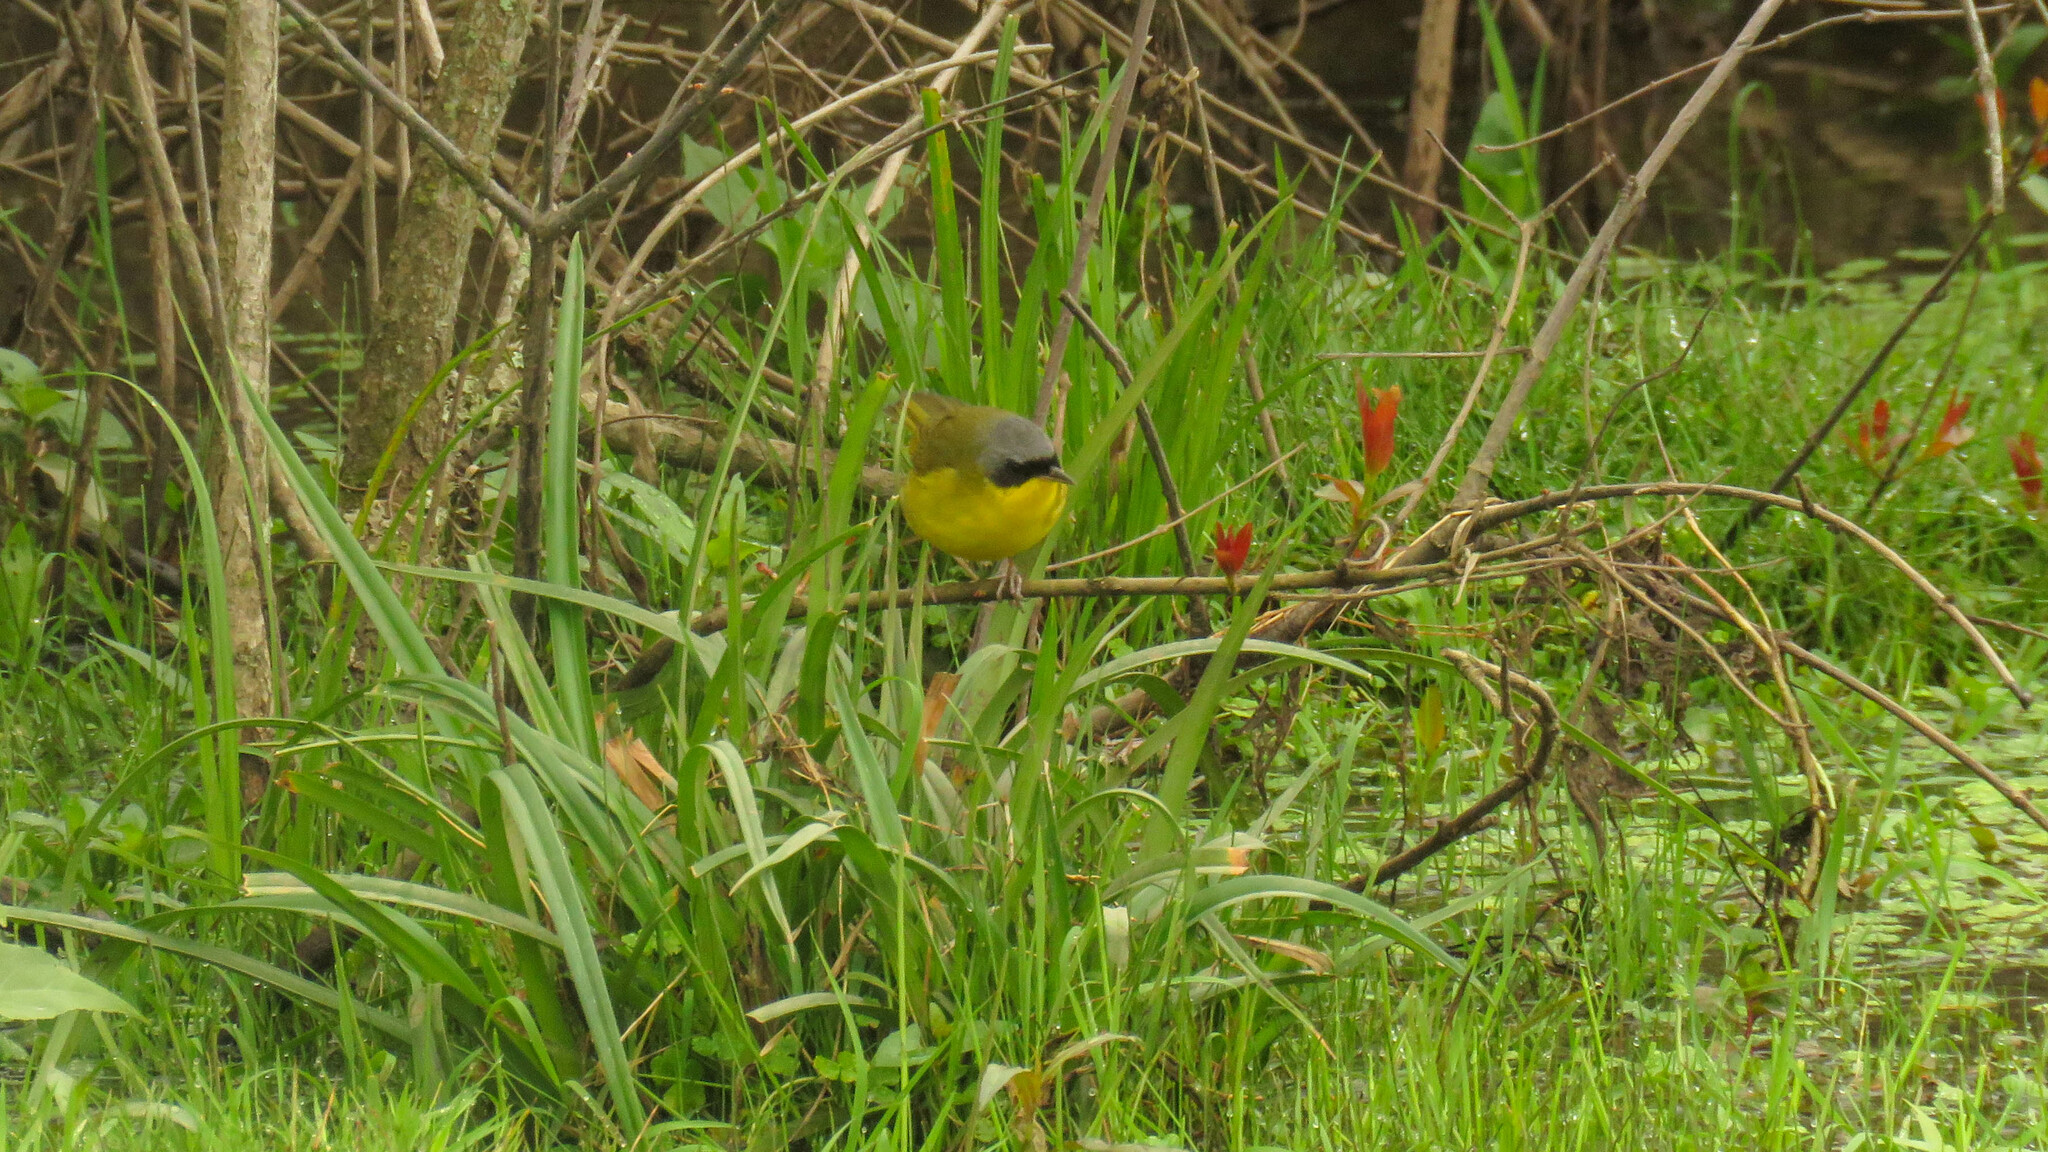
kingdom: Animalia
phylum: Chordata
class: Aves
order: Passeriformes
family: Parulidae
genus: Geothlypis
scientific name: Geothlypis velata
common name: Southern yellowthroat
